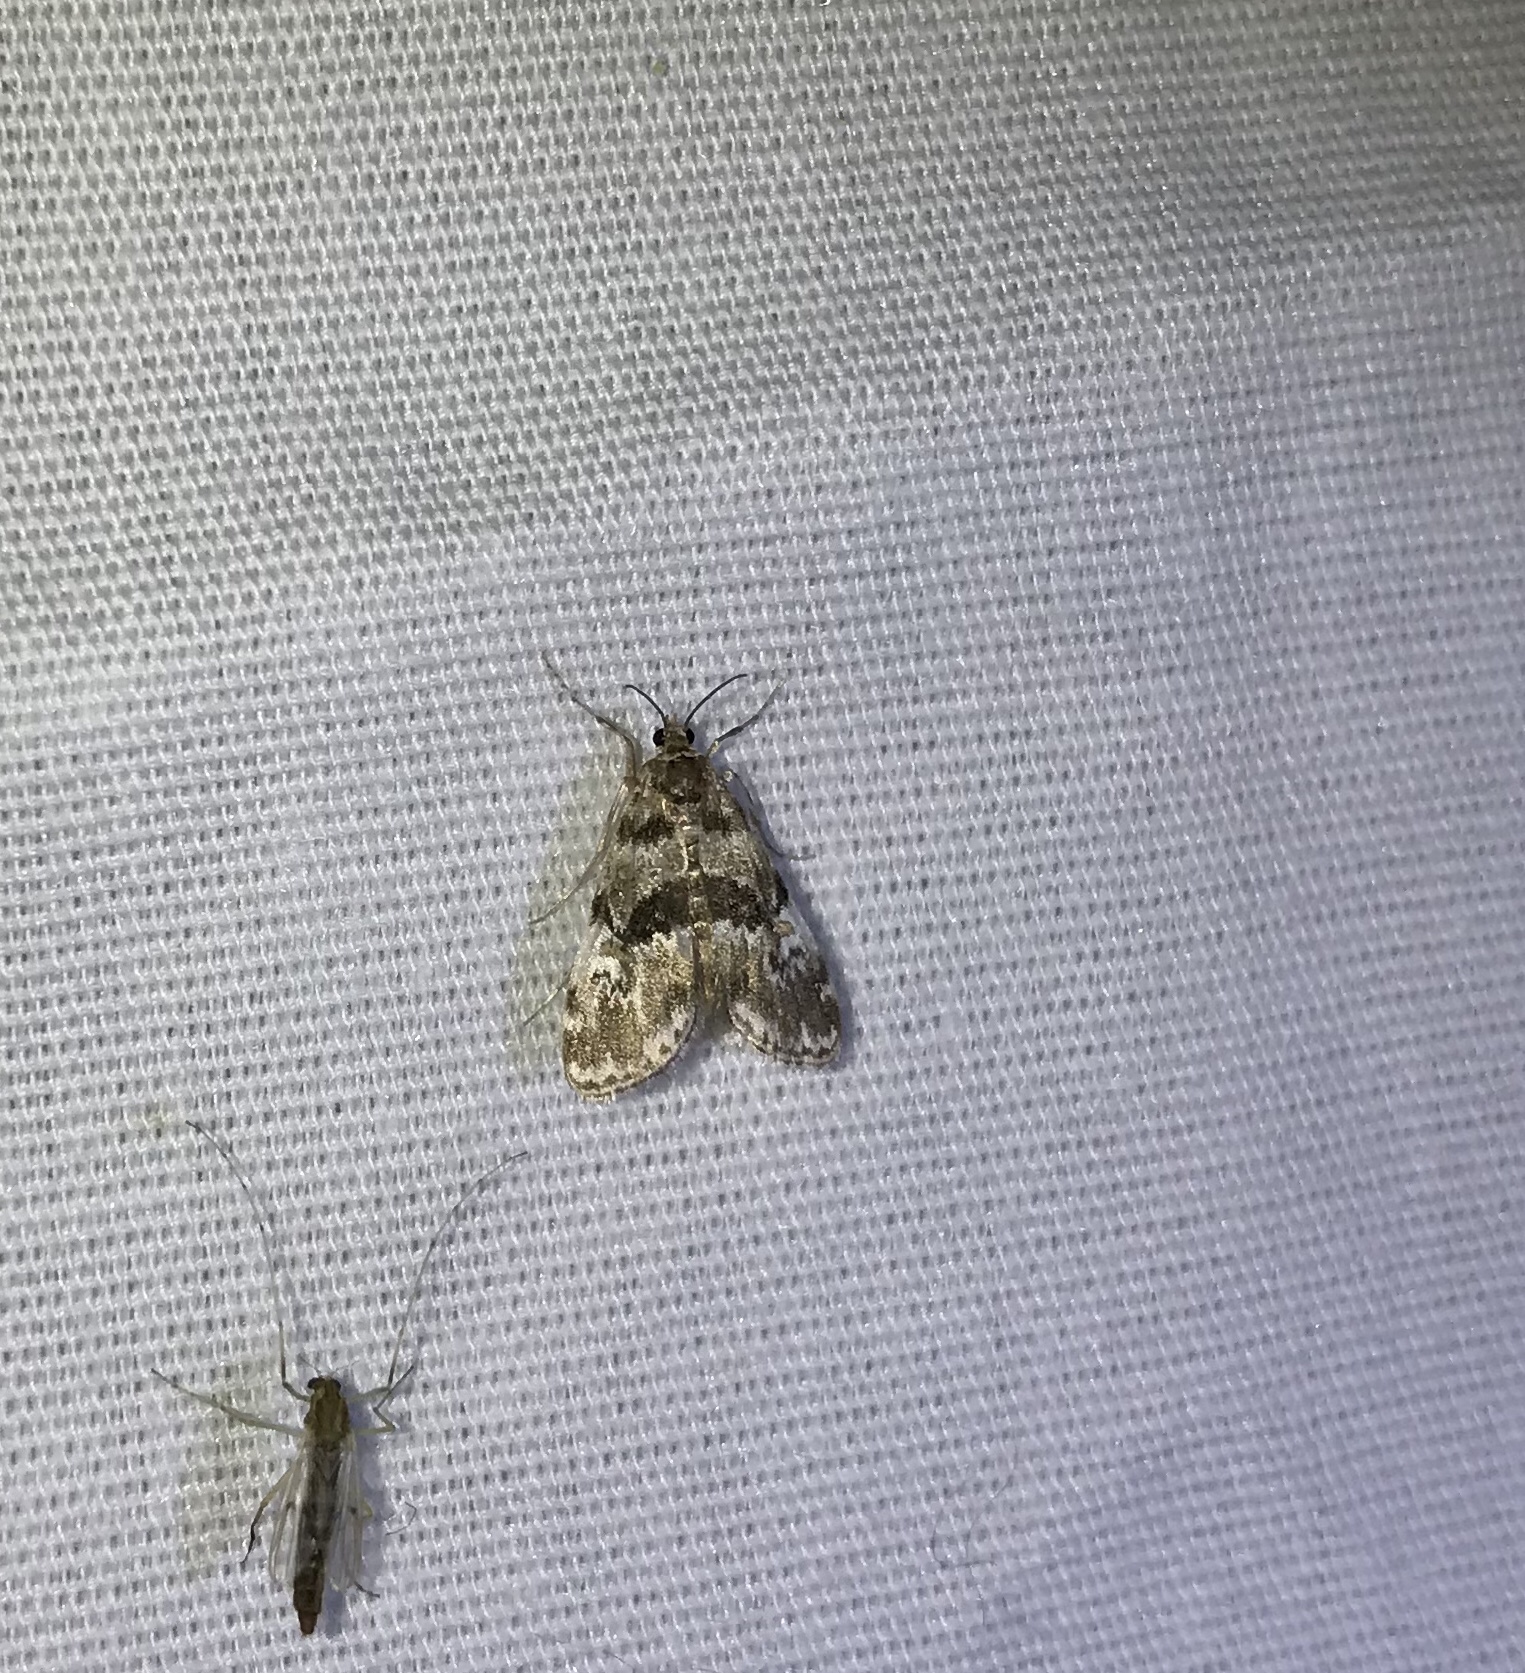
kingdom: Animalia
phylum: Arthropoda
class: Insecta
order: Lepidoptera
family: Crambidae
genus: Elophila
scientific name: Elophila obliteralis
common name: Waterlily leafcutter moth
